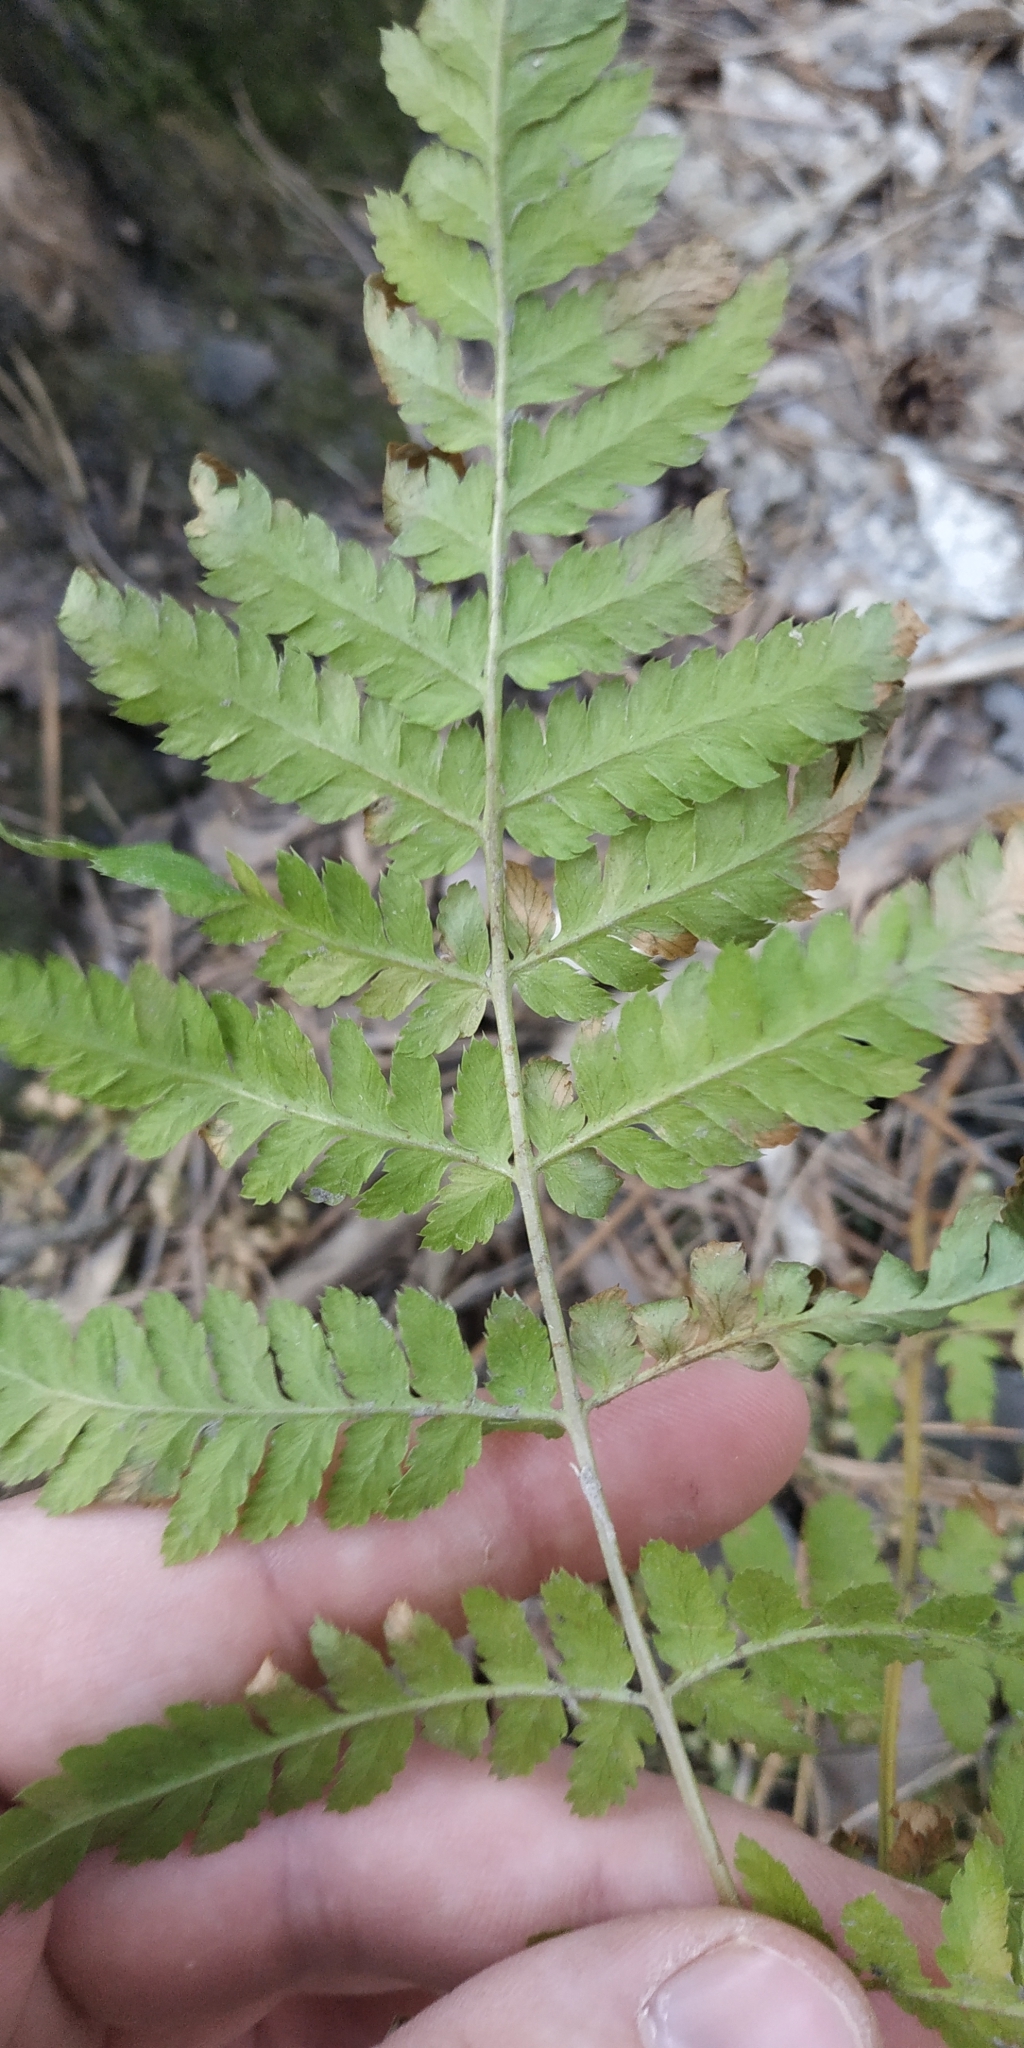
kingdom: Plantae
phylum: Tracheophyta
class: Polypodiopsida
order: Polypodiales
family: Dryopteridaceae
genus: Dryopteris
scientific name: Dryopteris carthusiana
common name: Narrow buckler-fern
